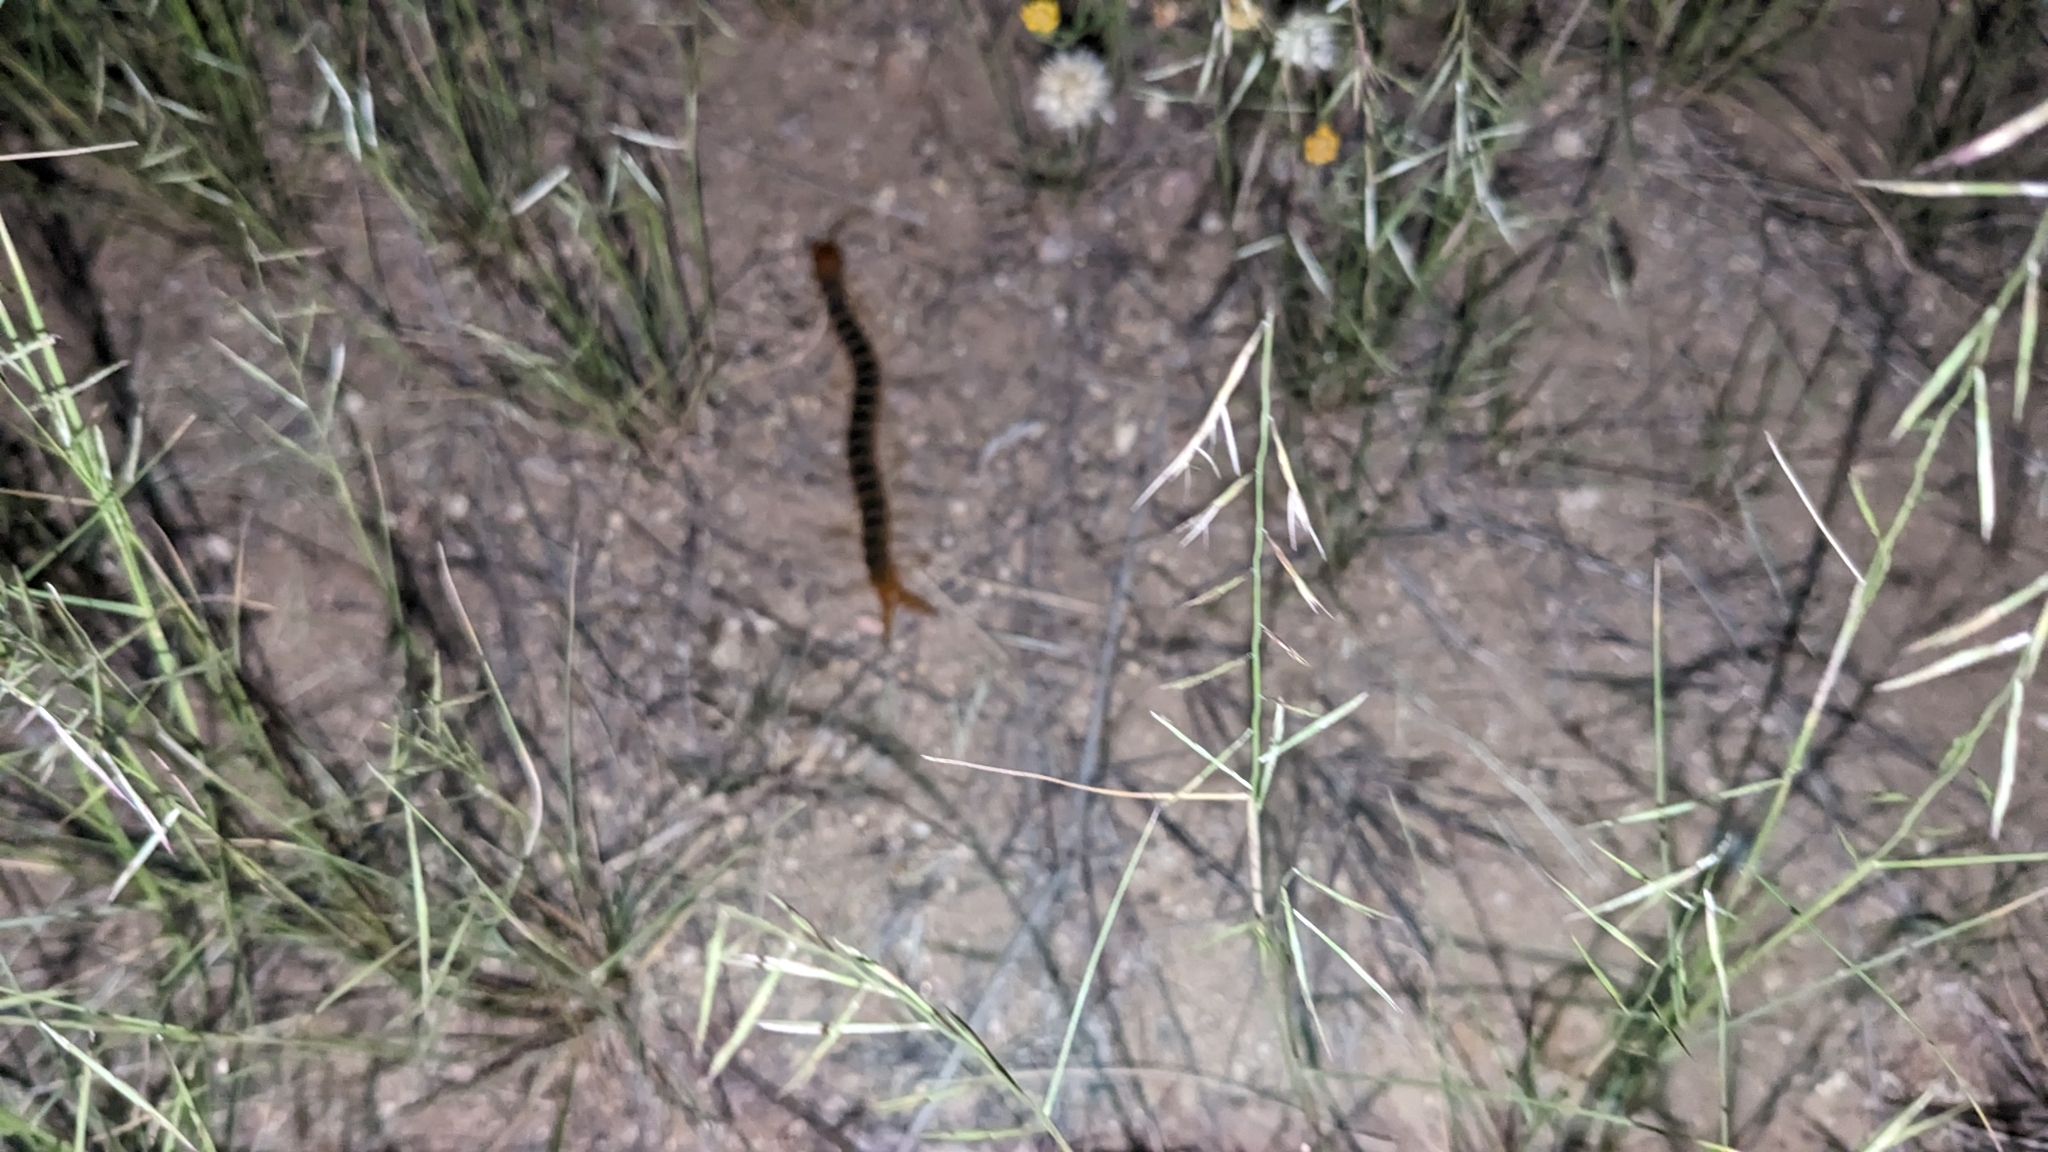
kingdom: Animalia
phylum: Arthropoda
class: Chilopoda
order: Scolopendromorpha
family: Scolopendridae
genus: Scolopendra
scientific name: Scolopendra polymorpha
